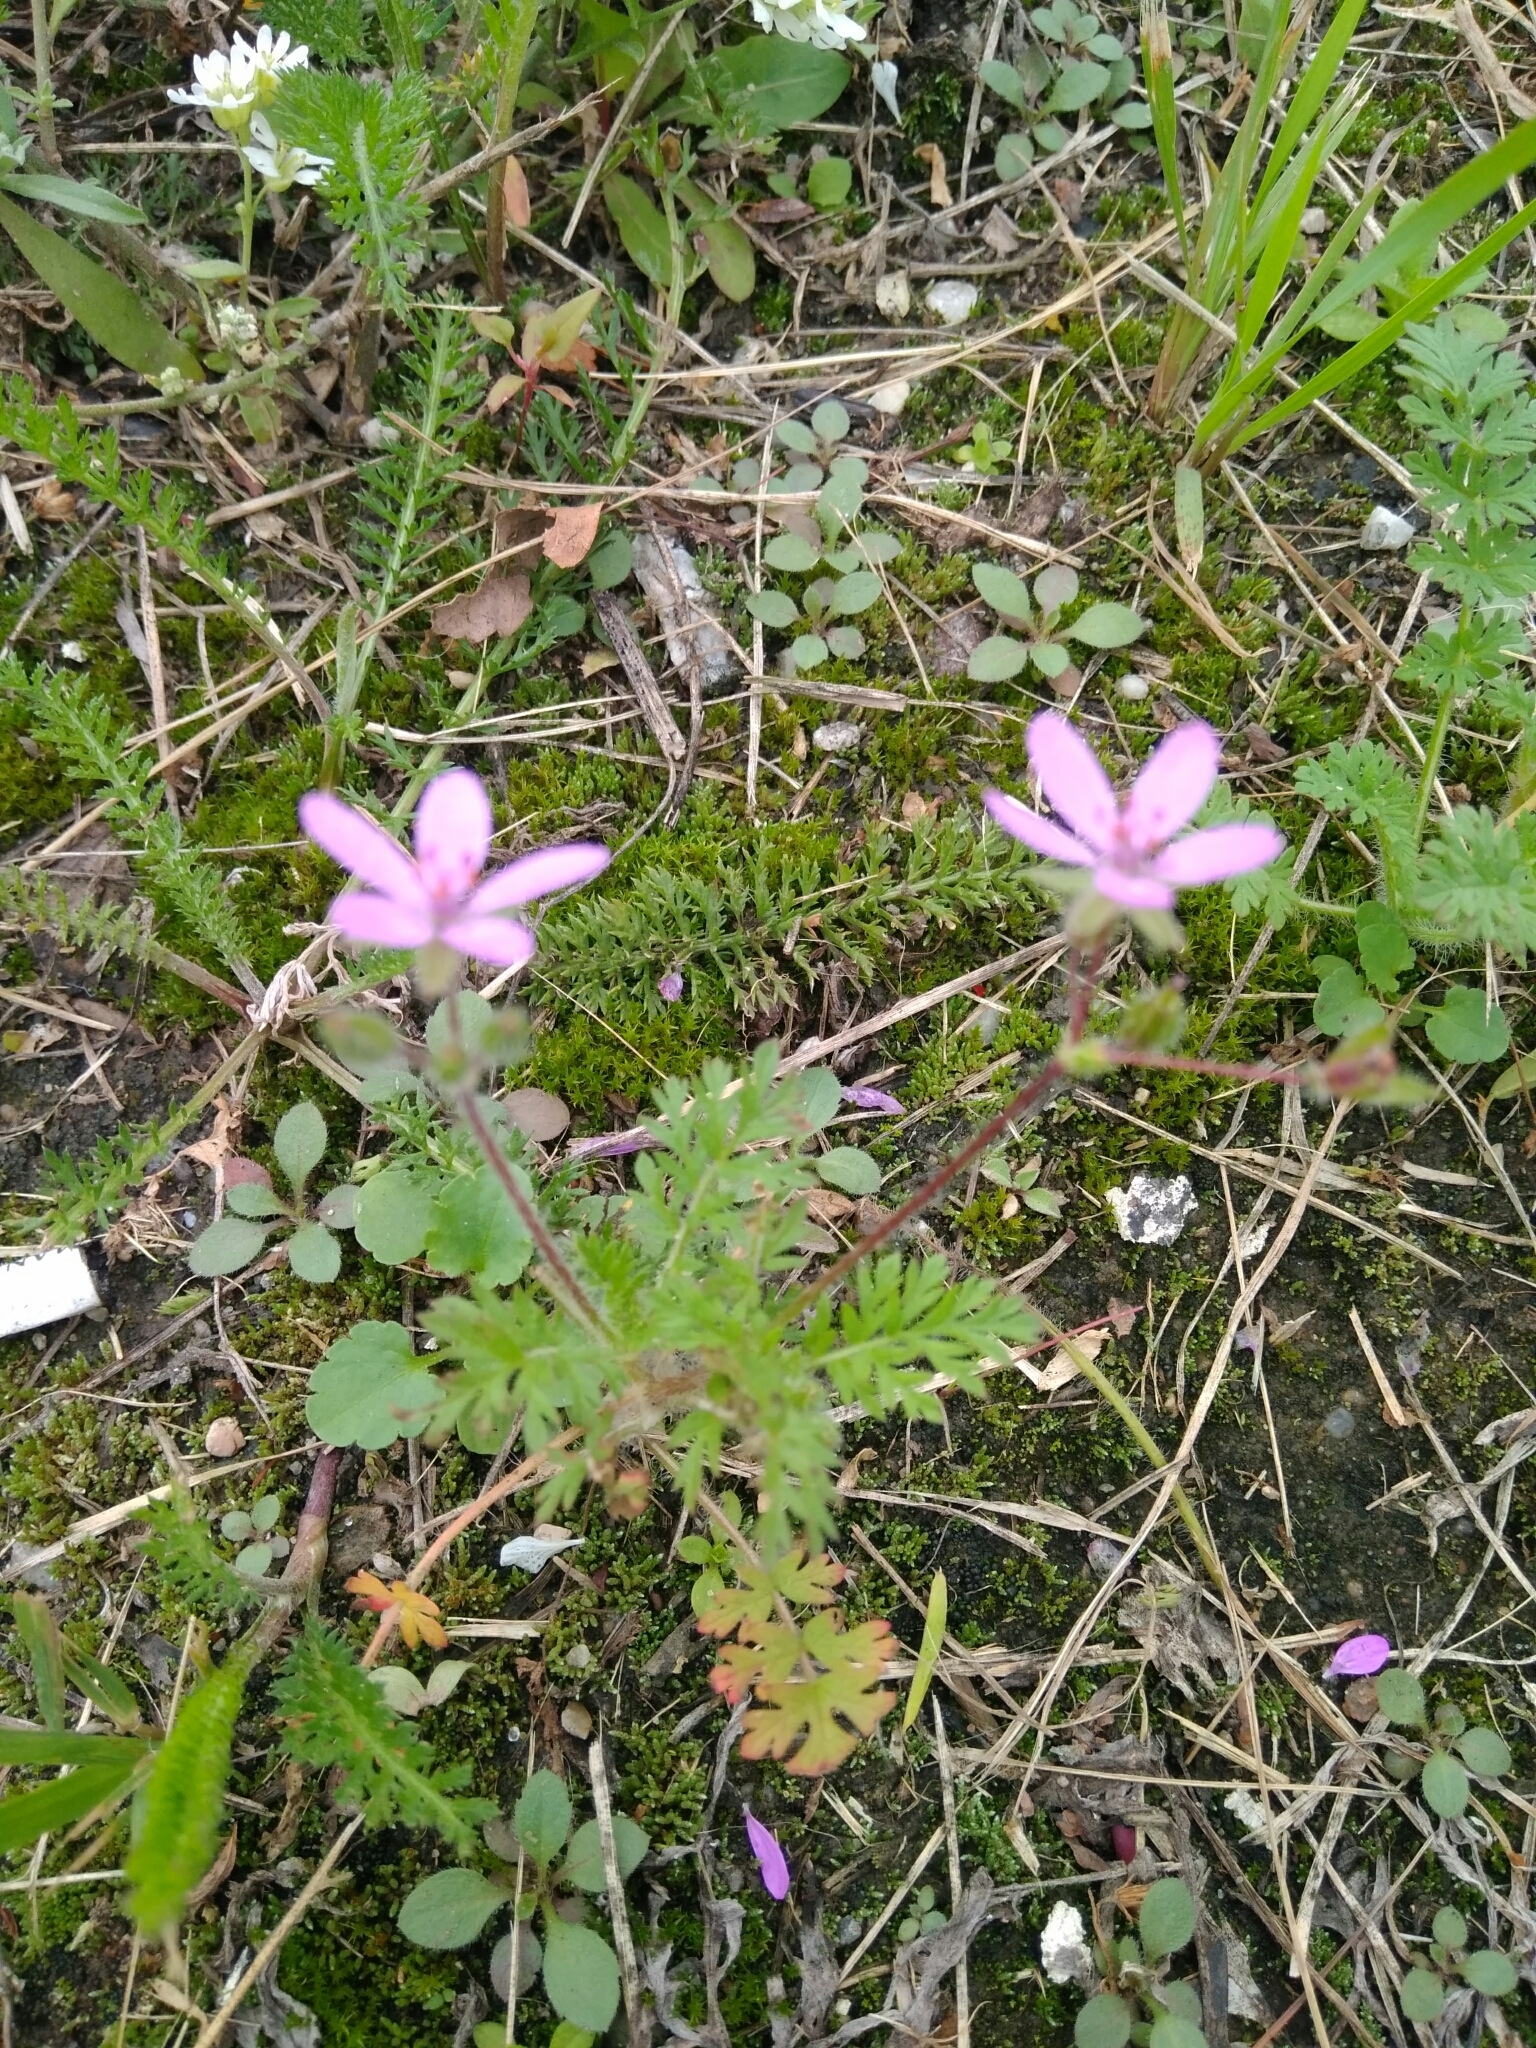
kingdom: Plantae
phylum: Tracheophyta
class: Magnoliopsida
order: Geraniales
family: Geraniaceae
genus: Erodium
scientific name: Erodium cicutarium
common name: Common stork's-bill
